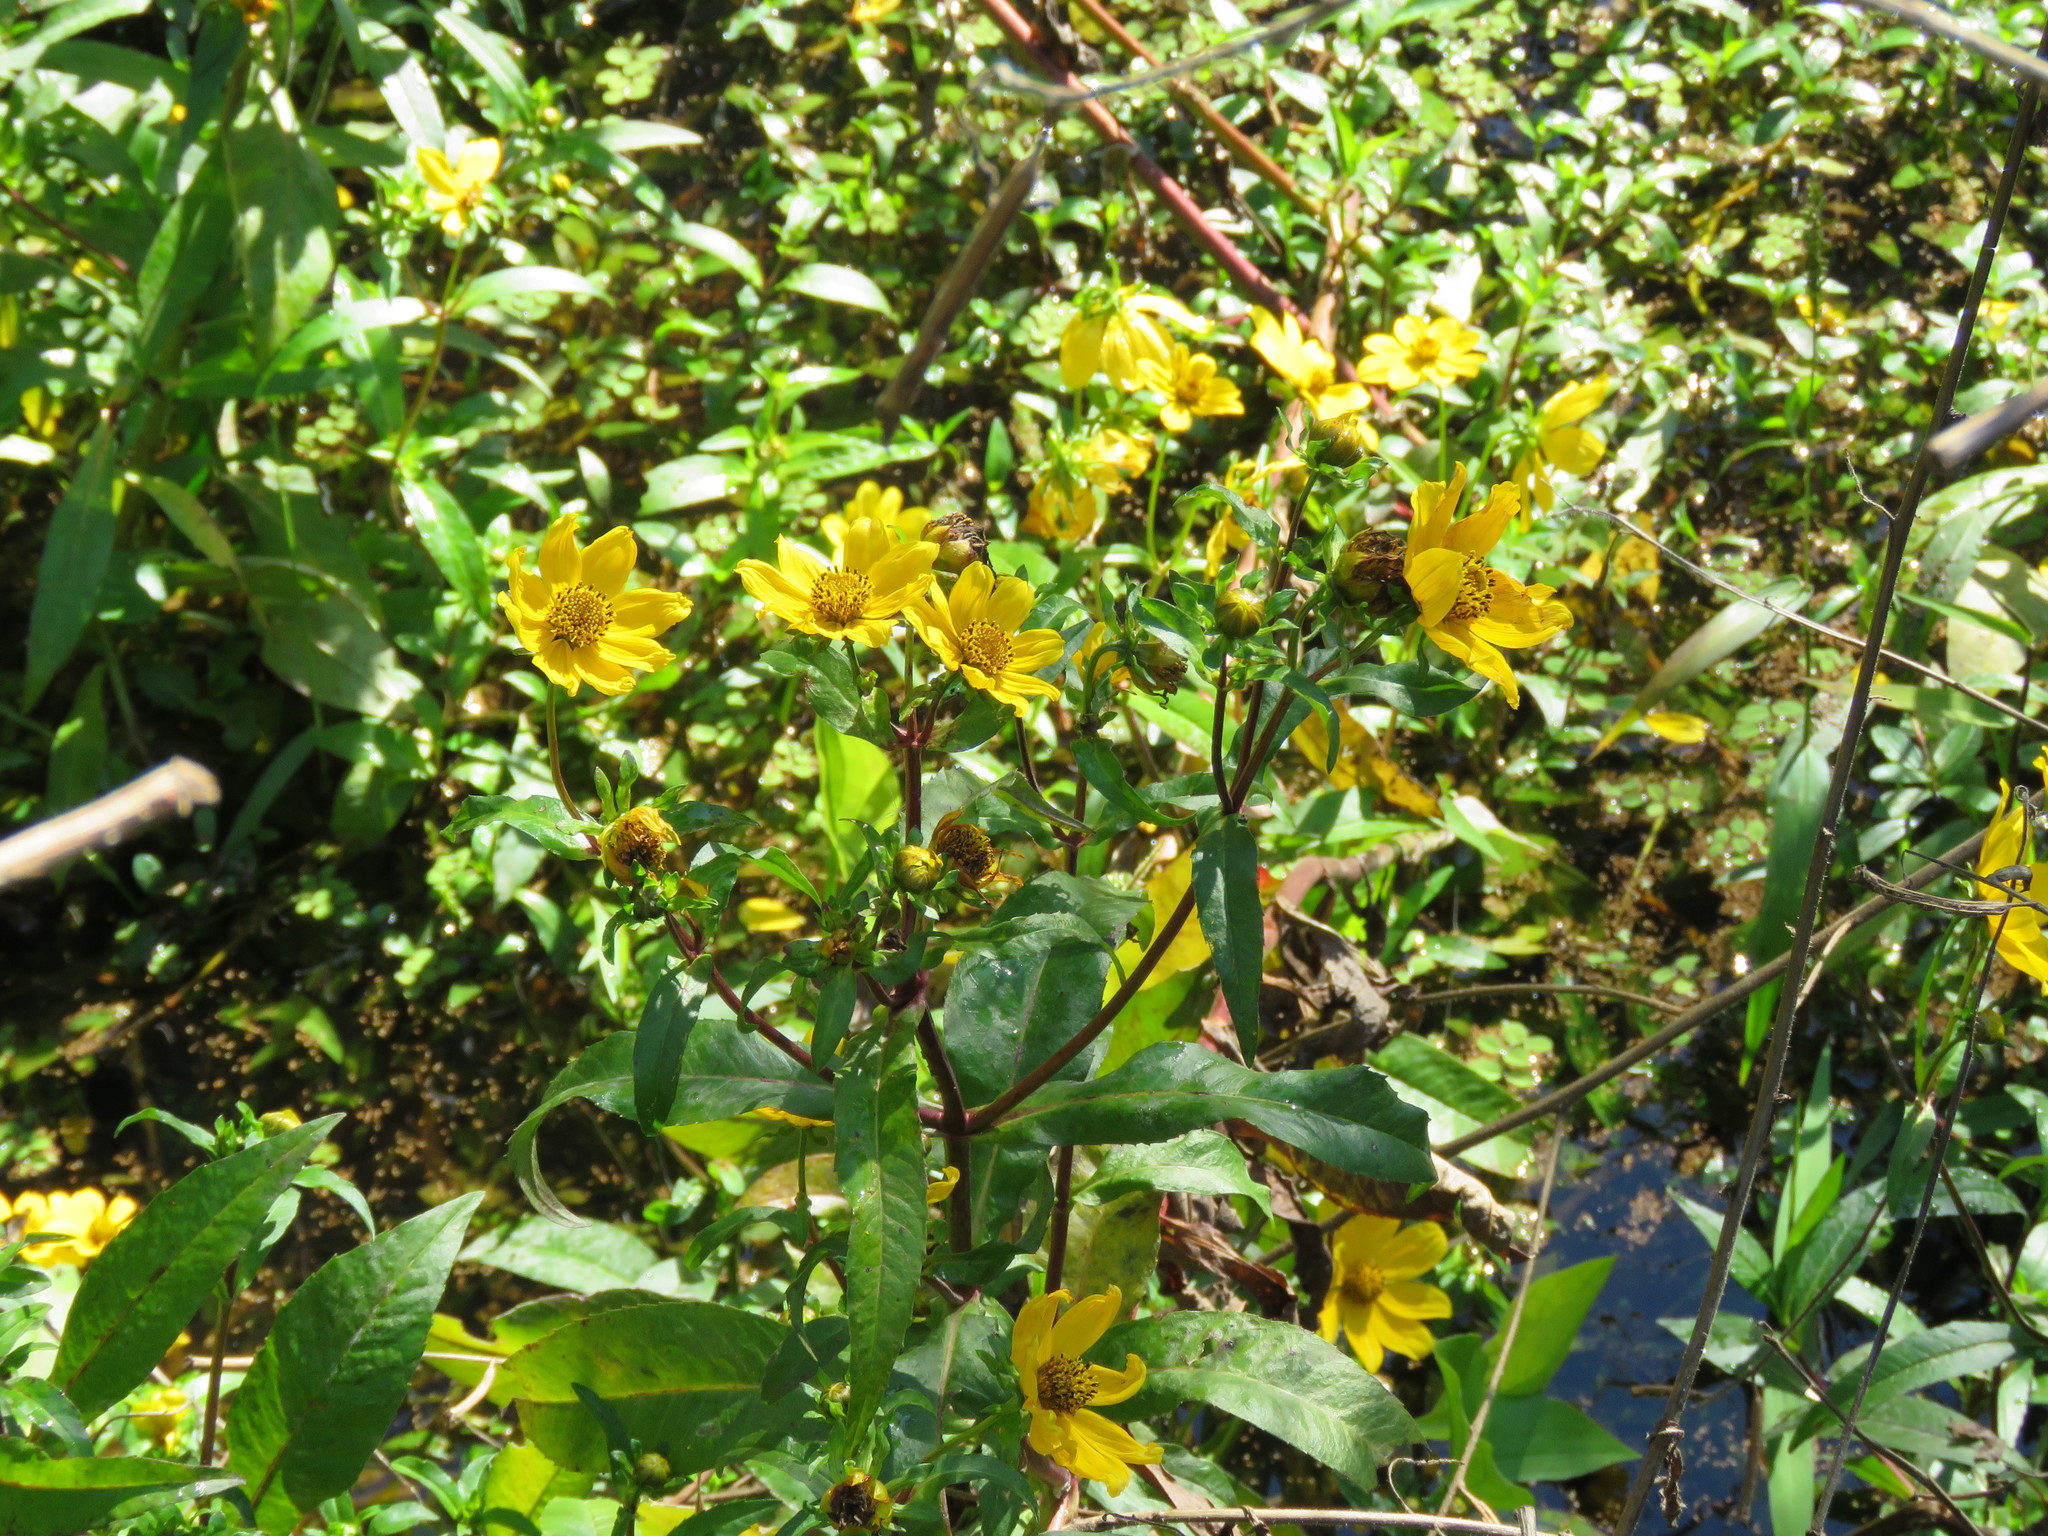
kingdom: Plantae
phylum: Tracheophyta
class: Magnoliopsida
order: Asterales
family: Asteraceae
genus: Bidens
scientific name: Bidens laevis
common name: Larger bur-marigold
